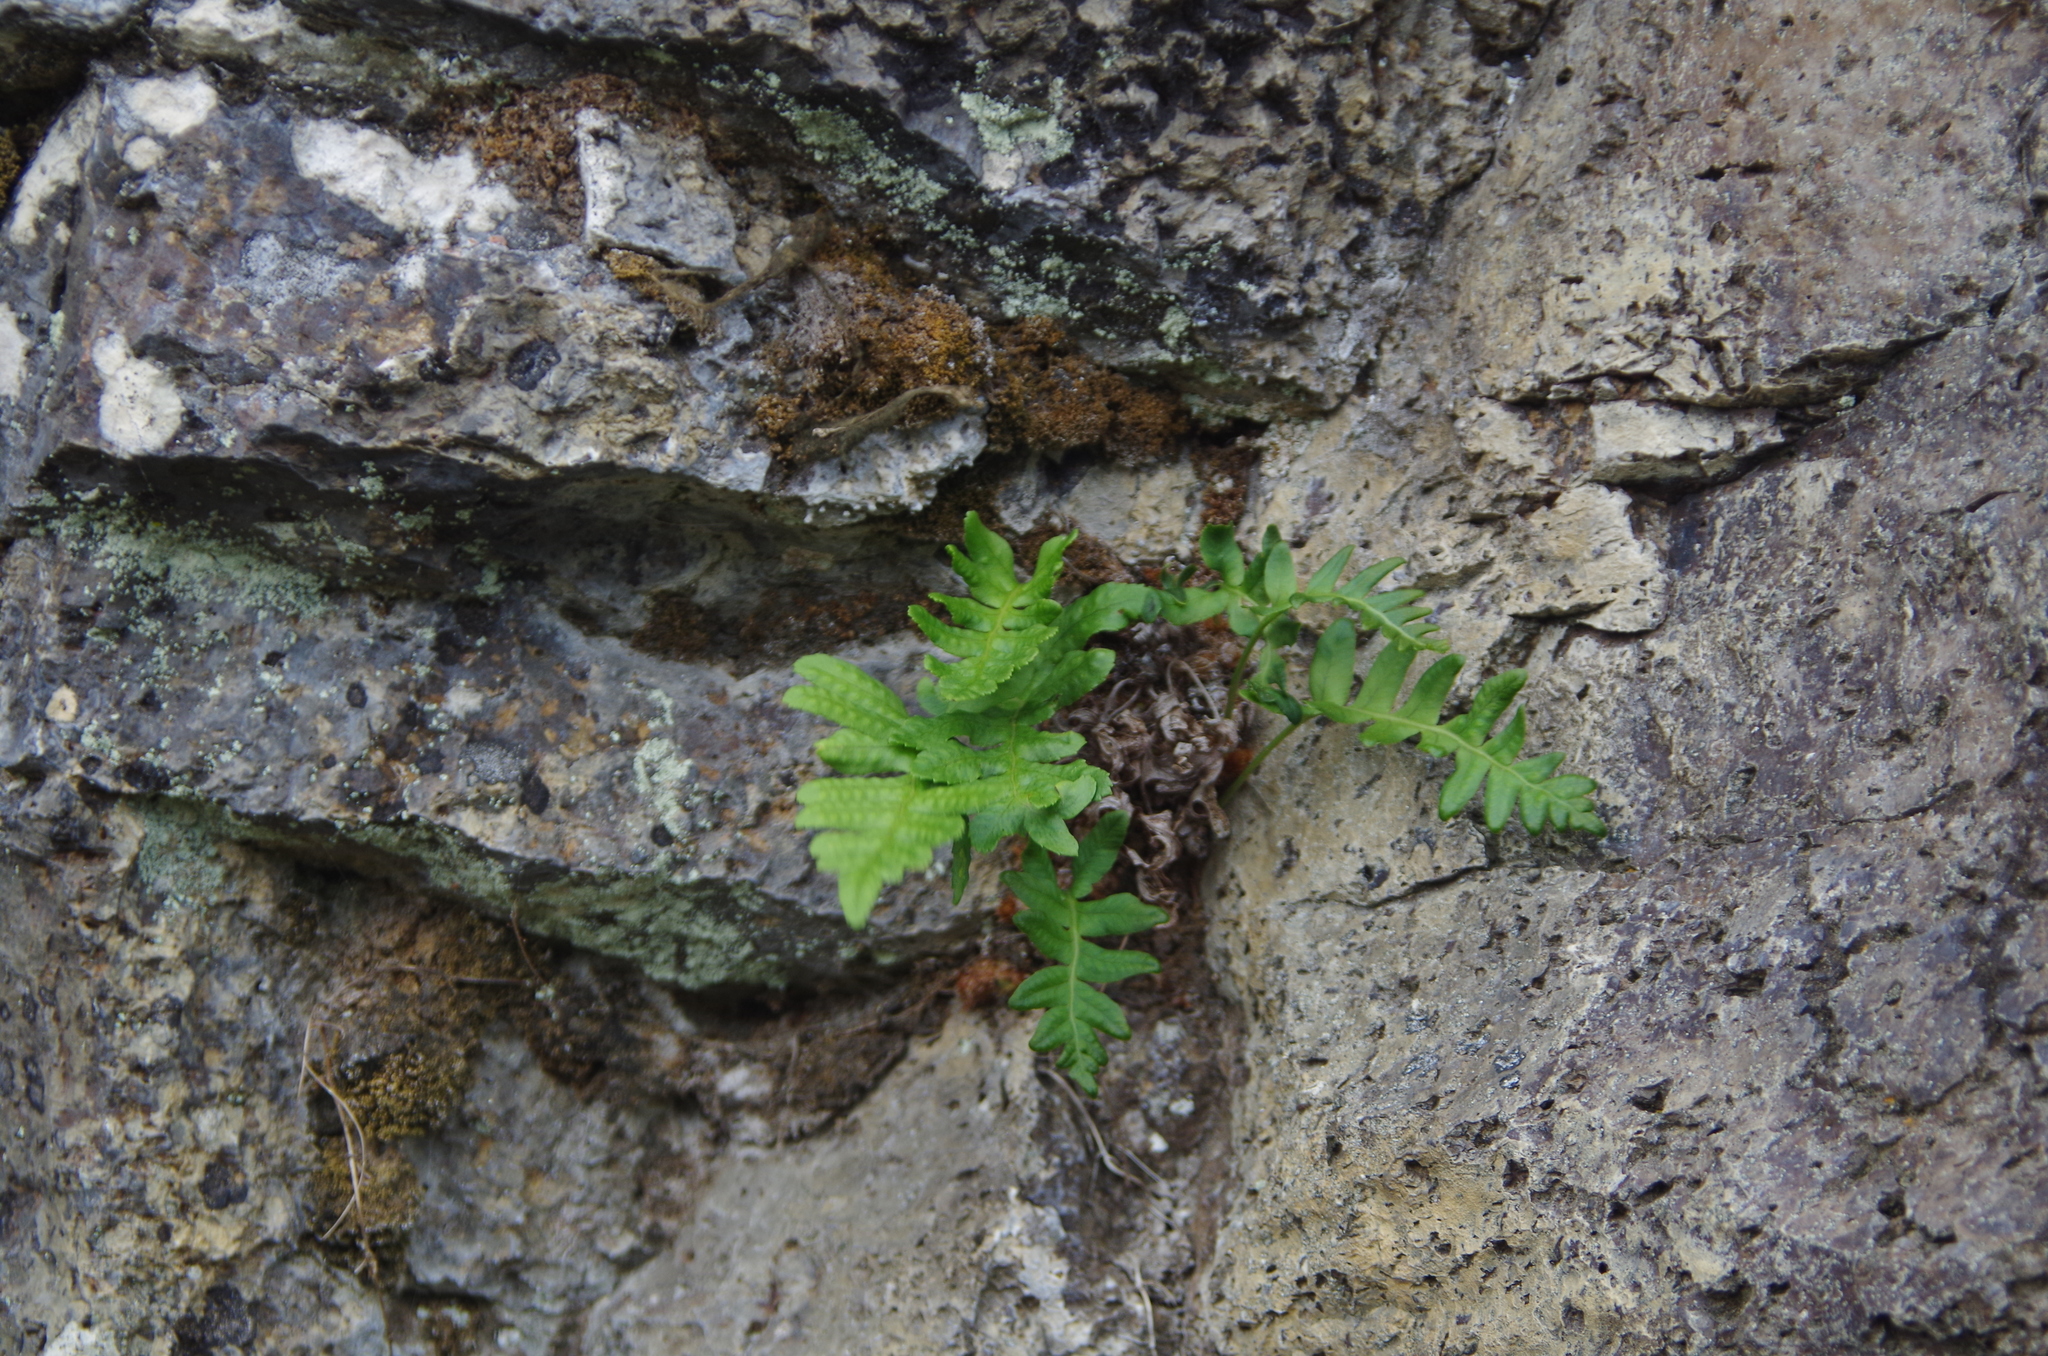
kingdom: Plantae
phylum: Tracheophyta
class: Polypodiopsida
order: Polypodiales
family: Polypodiaceae
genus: Polypodium
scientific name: Polypodium vulgare
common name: Common polypody
